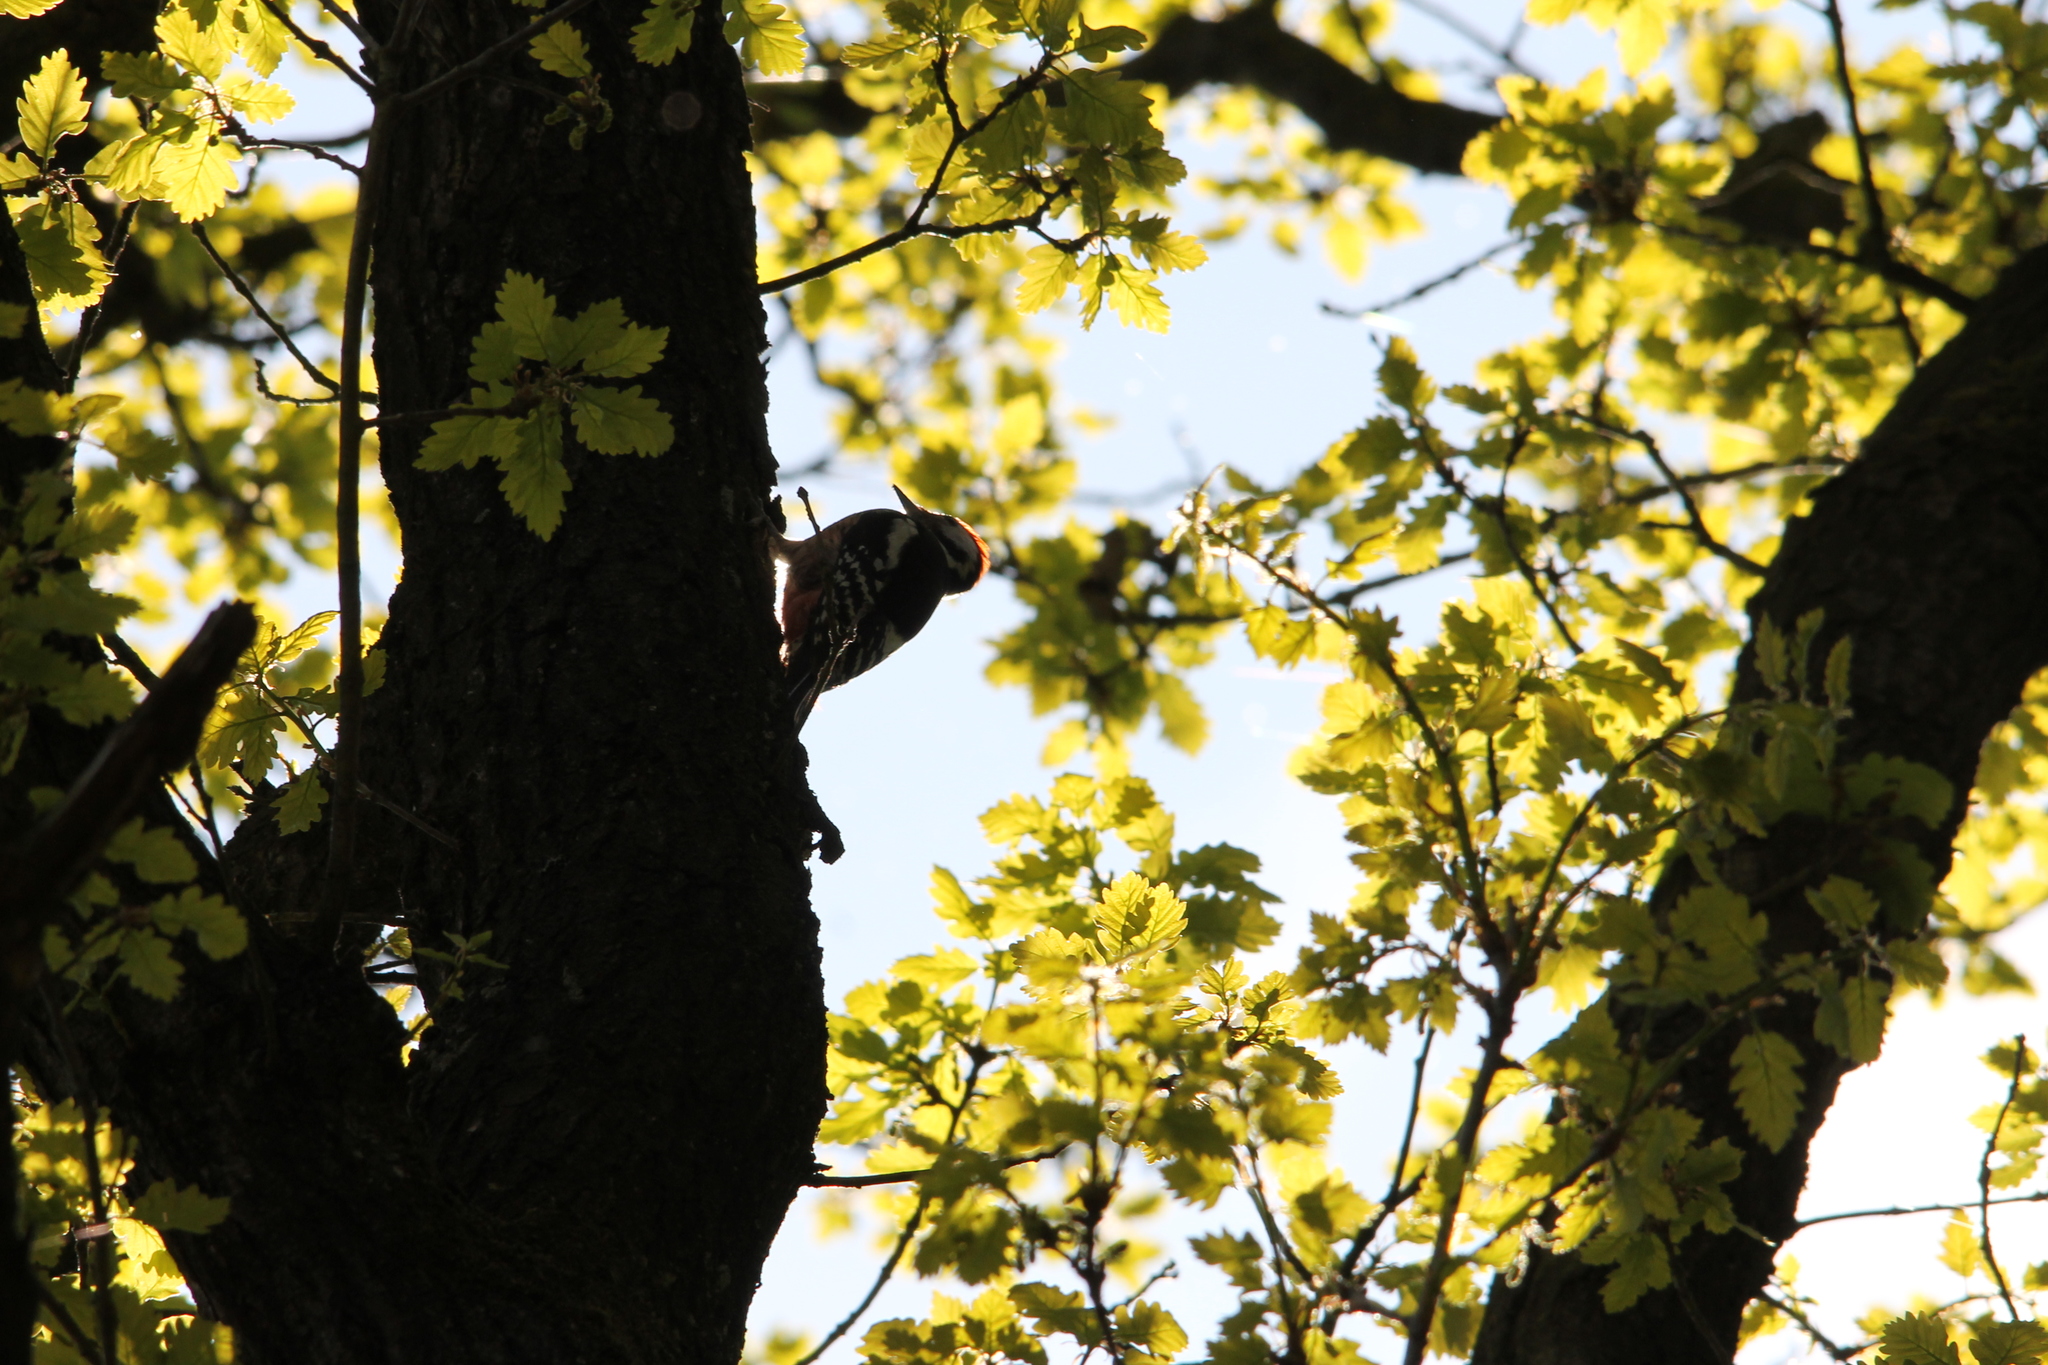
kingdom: Animalia
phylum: Chordata
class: Aves
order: Piciformes
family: Picidae
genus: Dendrocopos
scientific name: Dendrocopos major
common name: Great spotted woodpecker
